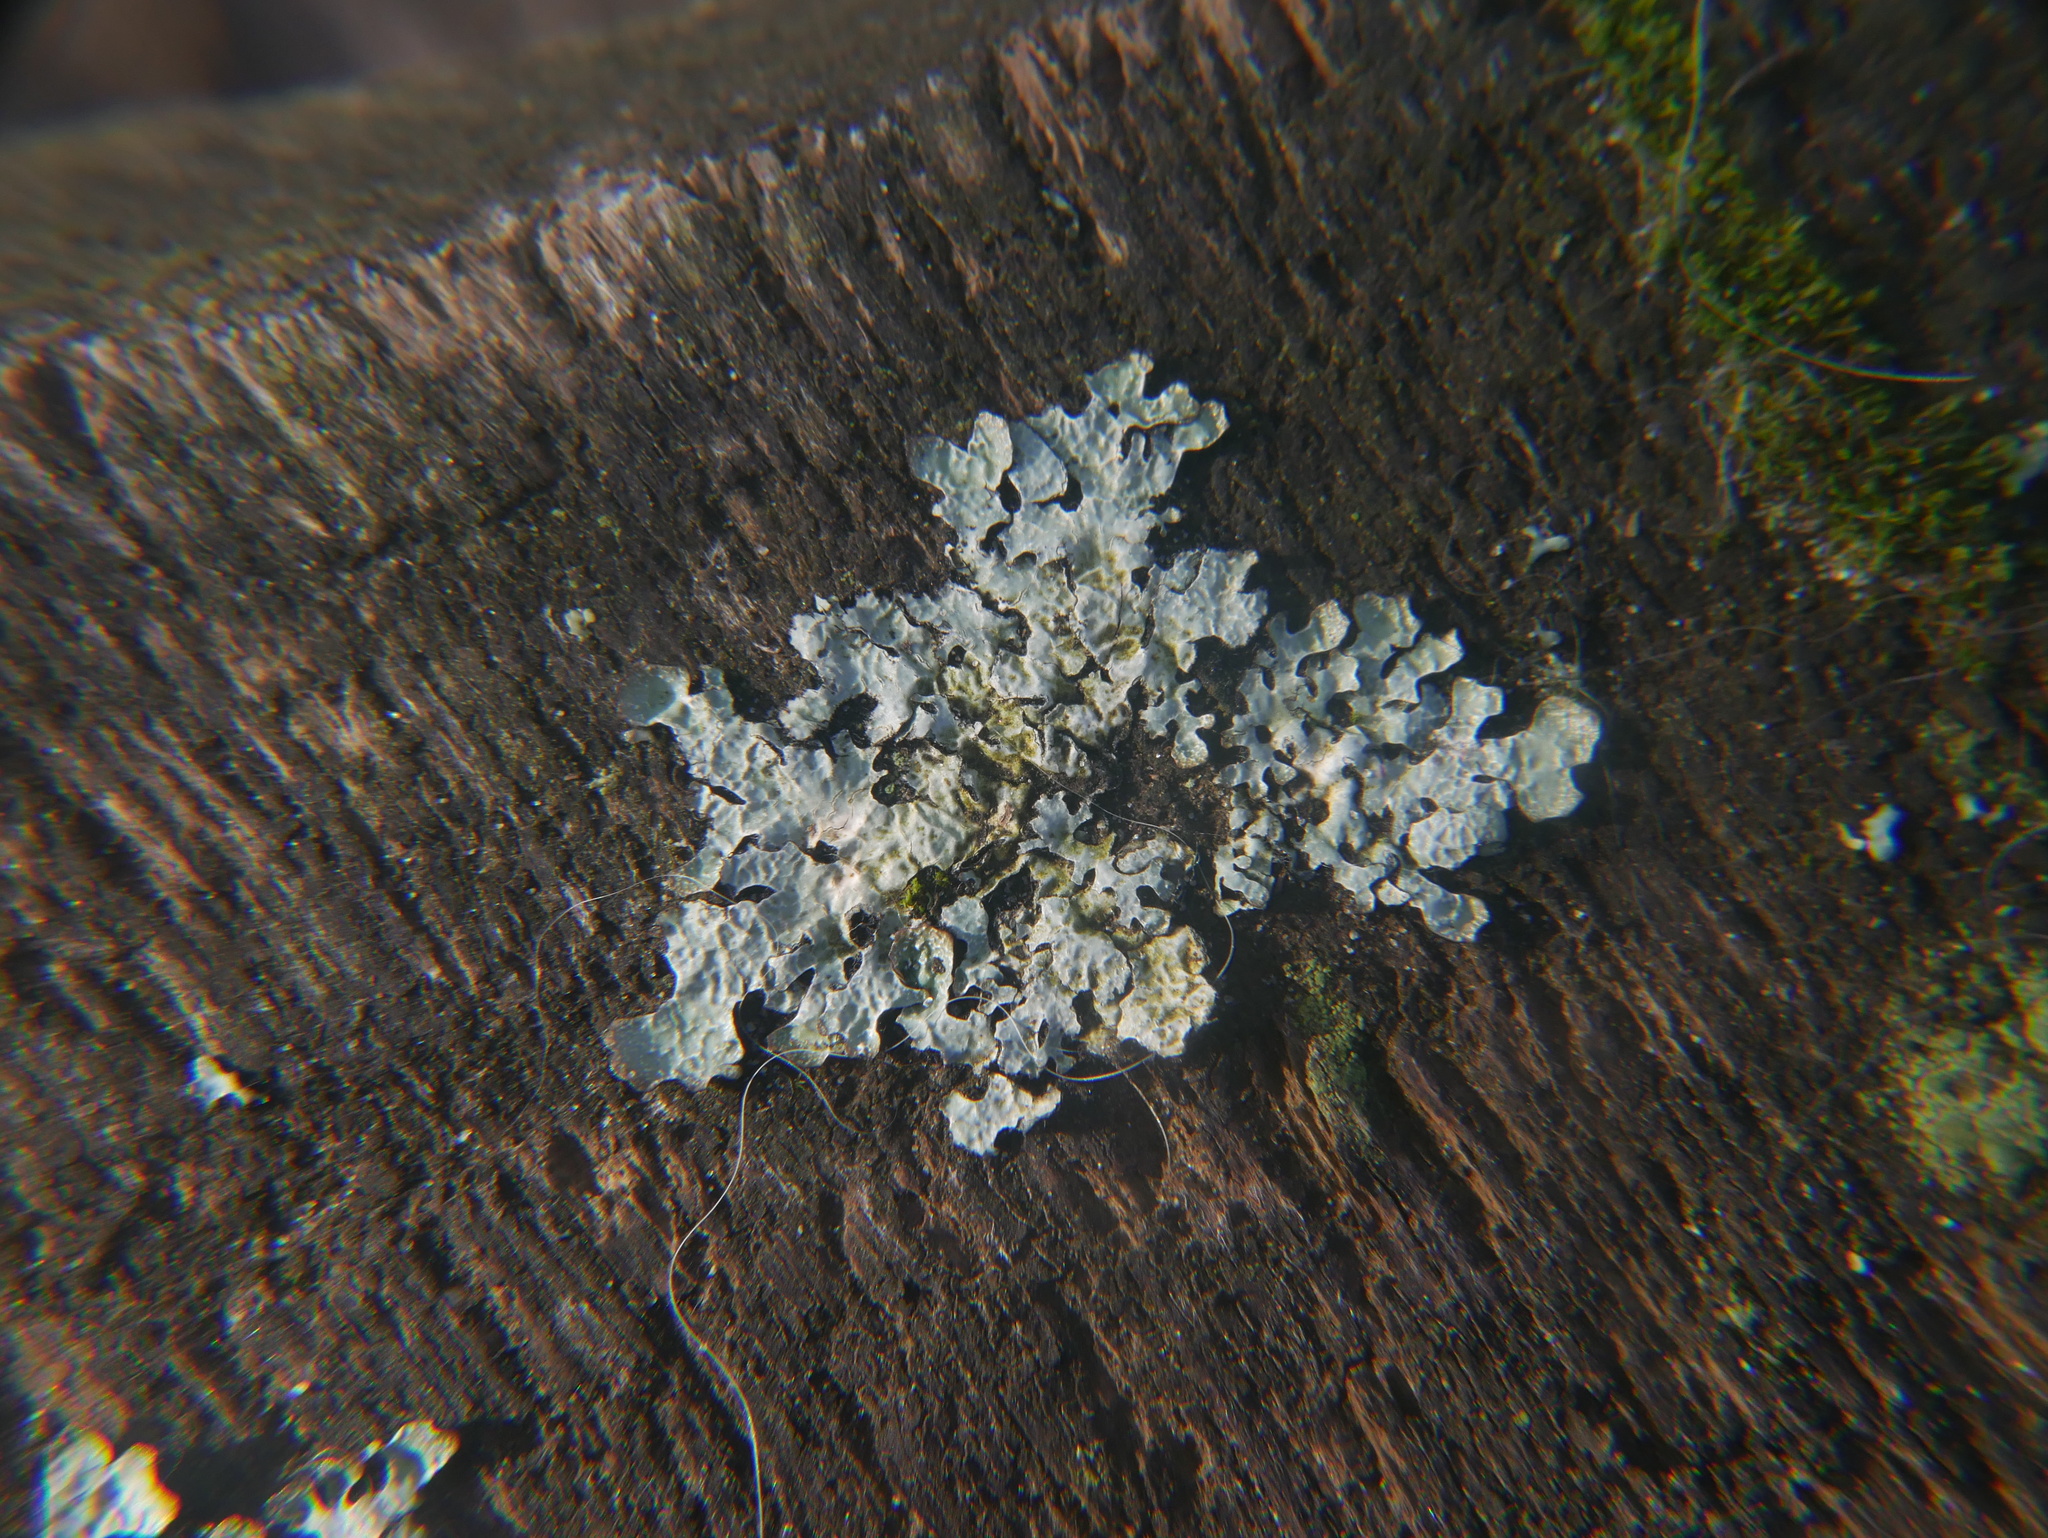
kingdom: Fungi
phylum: Ascomycota
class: Lecanoromycetes
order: Lecanorales
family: Parmeliaceae
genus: Parmelia
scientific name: Parmelia sulcata
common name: Netted shield lichen
